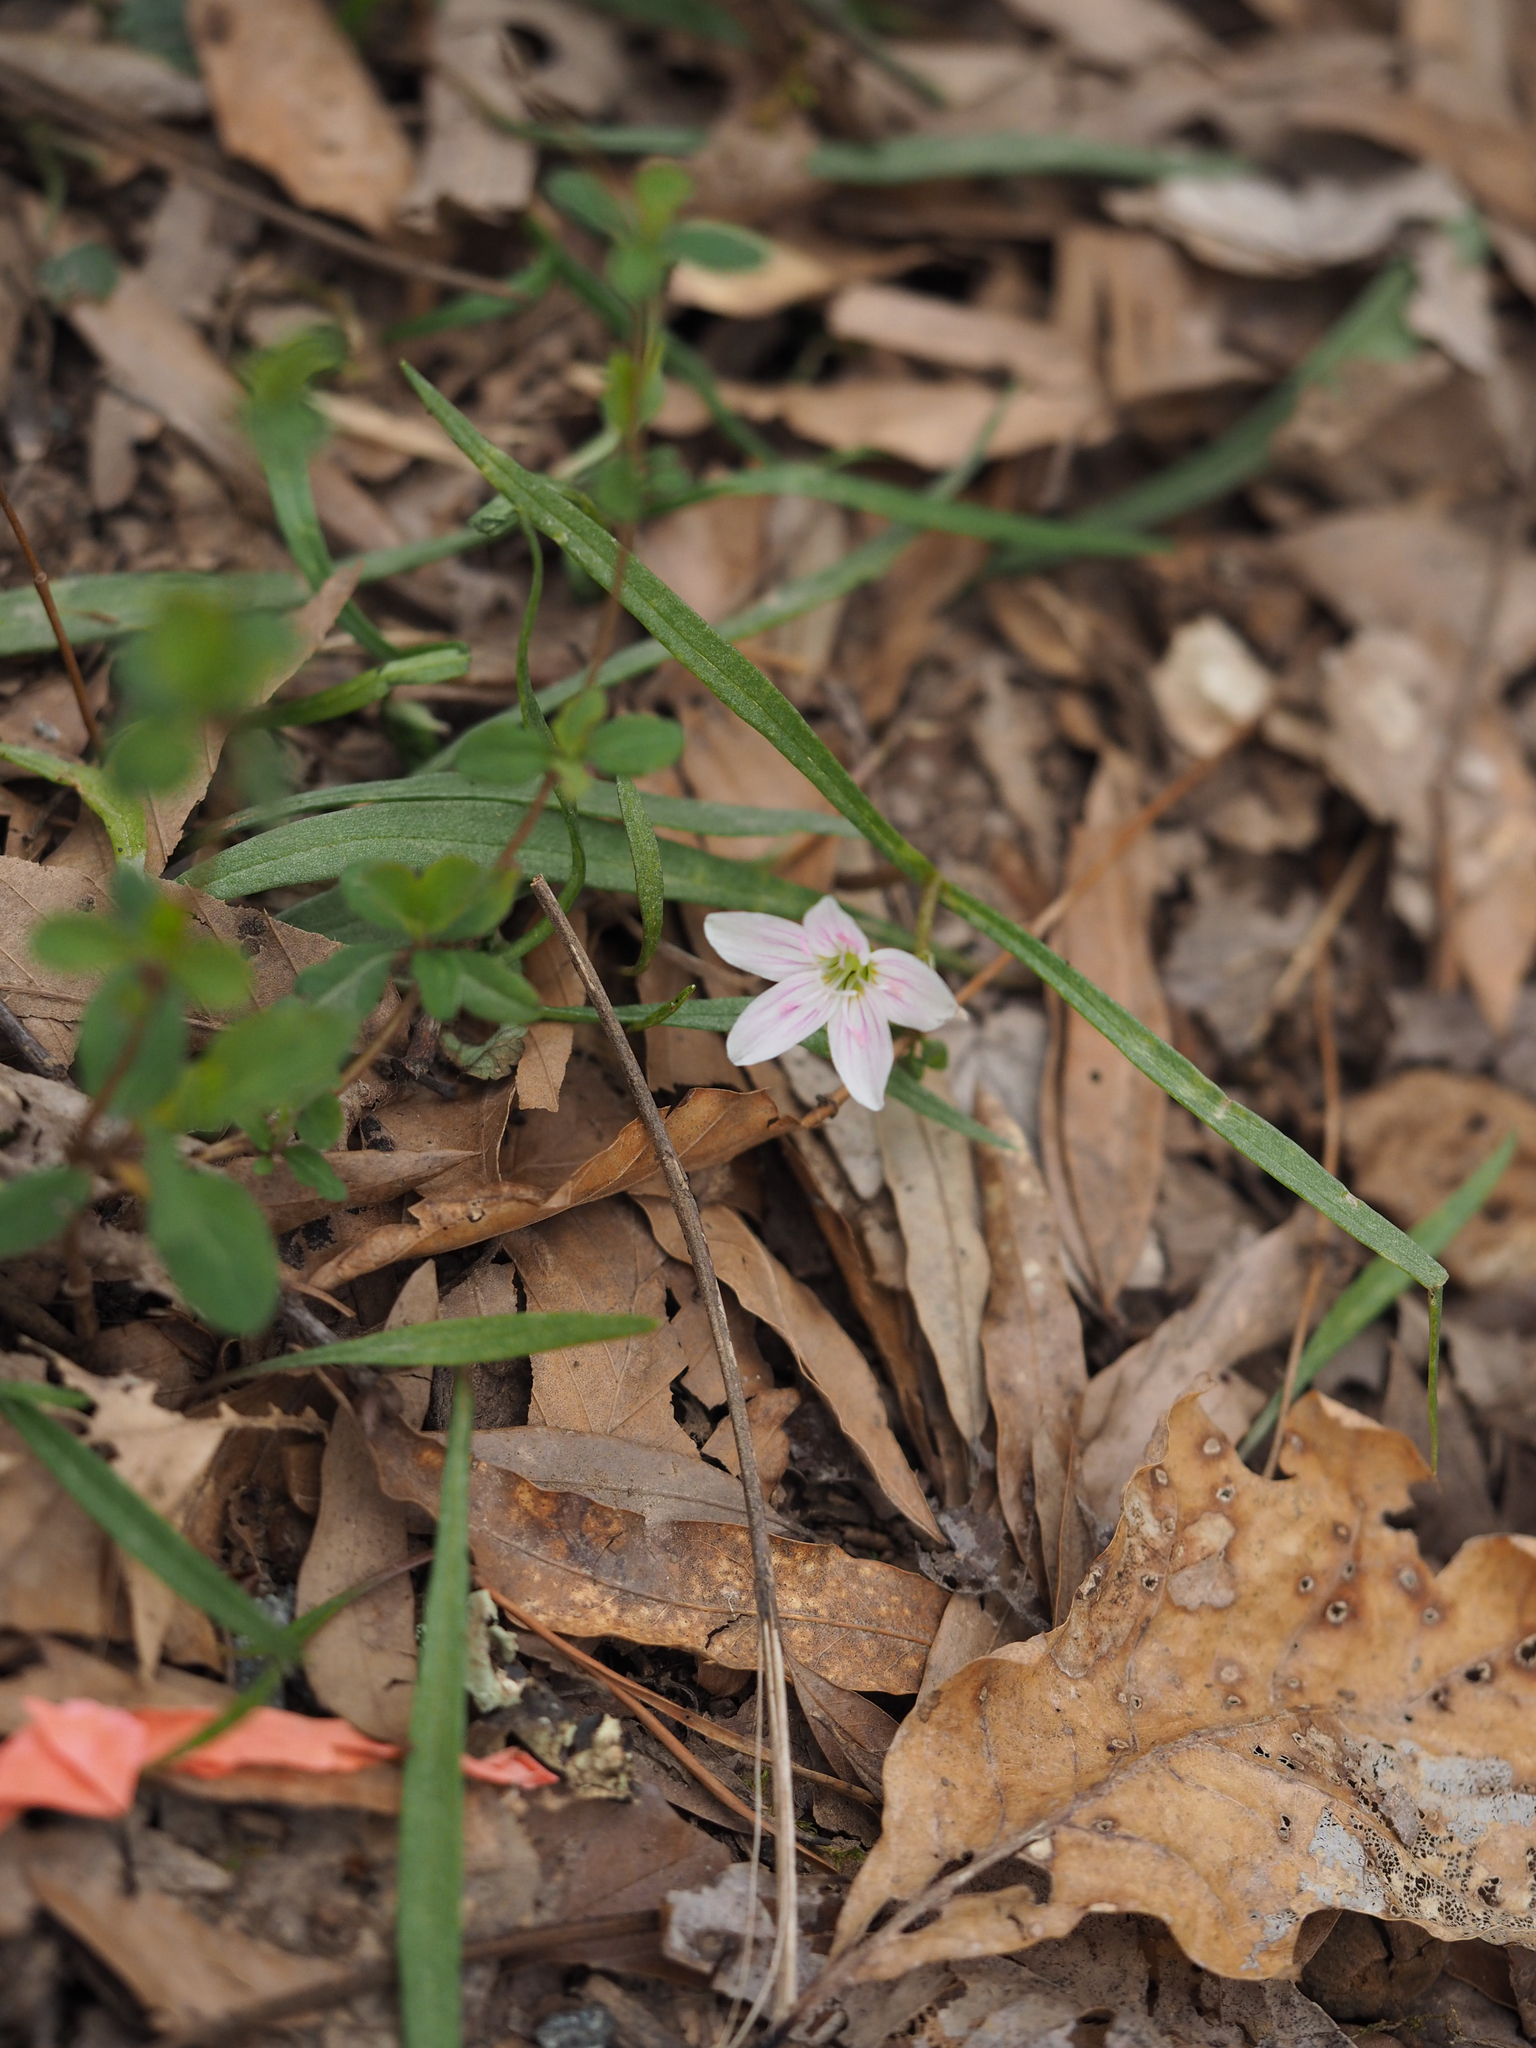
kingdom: Plantae
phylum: Tracheophyta
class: Magnoliopsida
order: Caryophyllales
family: Montiaceae
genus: Claytonia
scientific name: Claytonia virginica
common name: Virginia springbeauty
